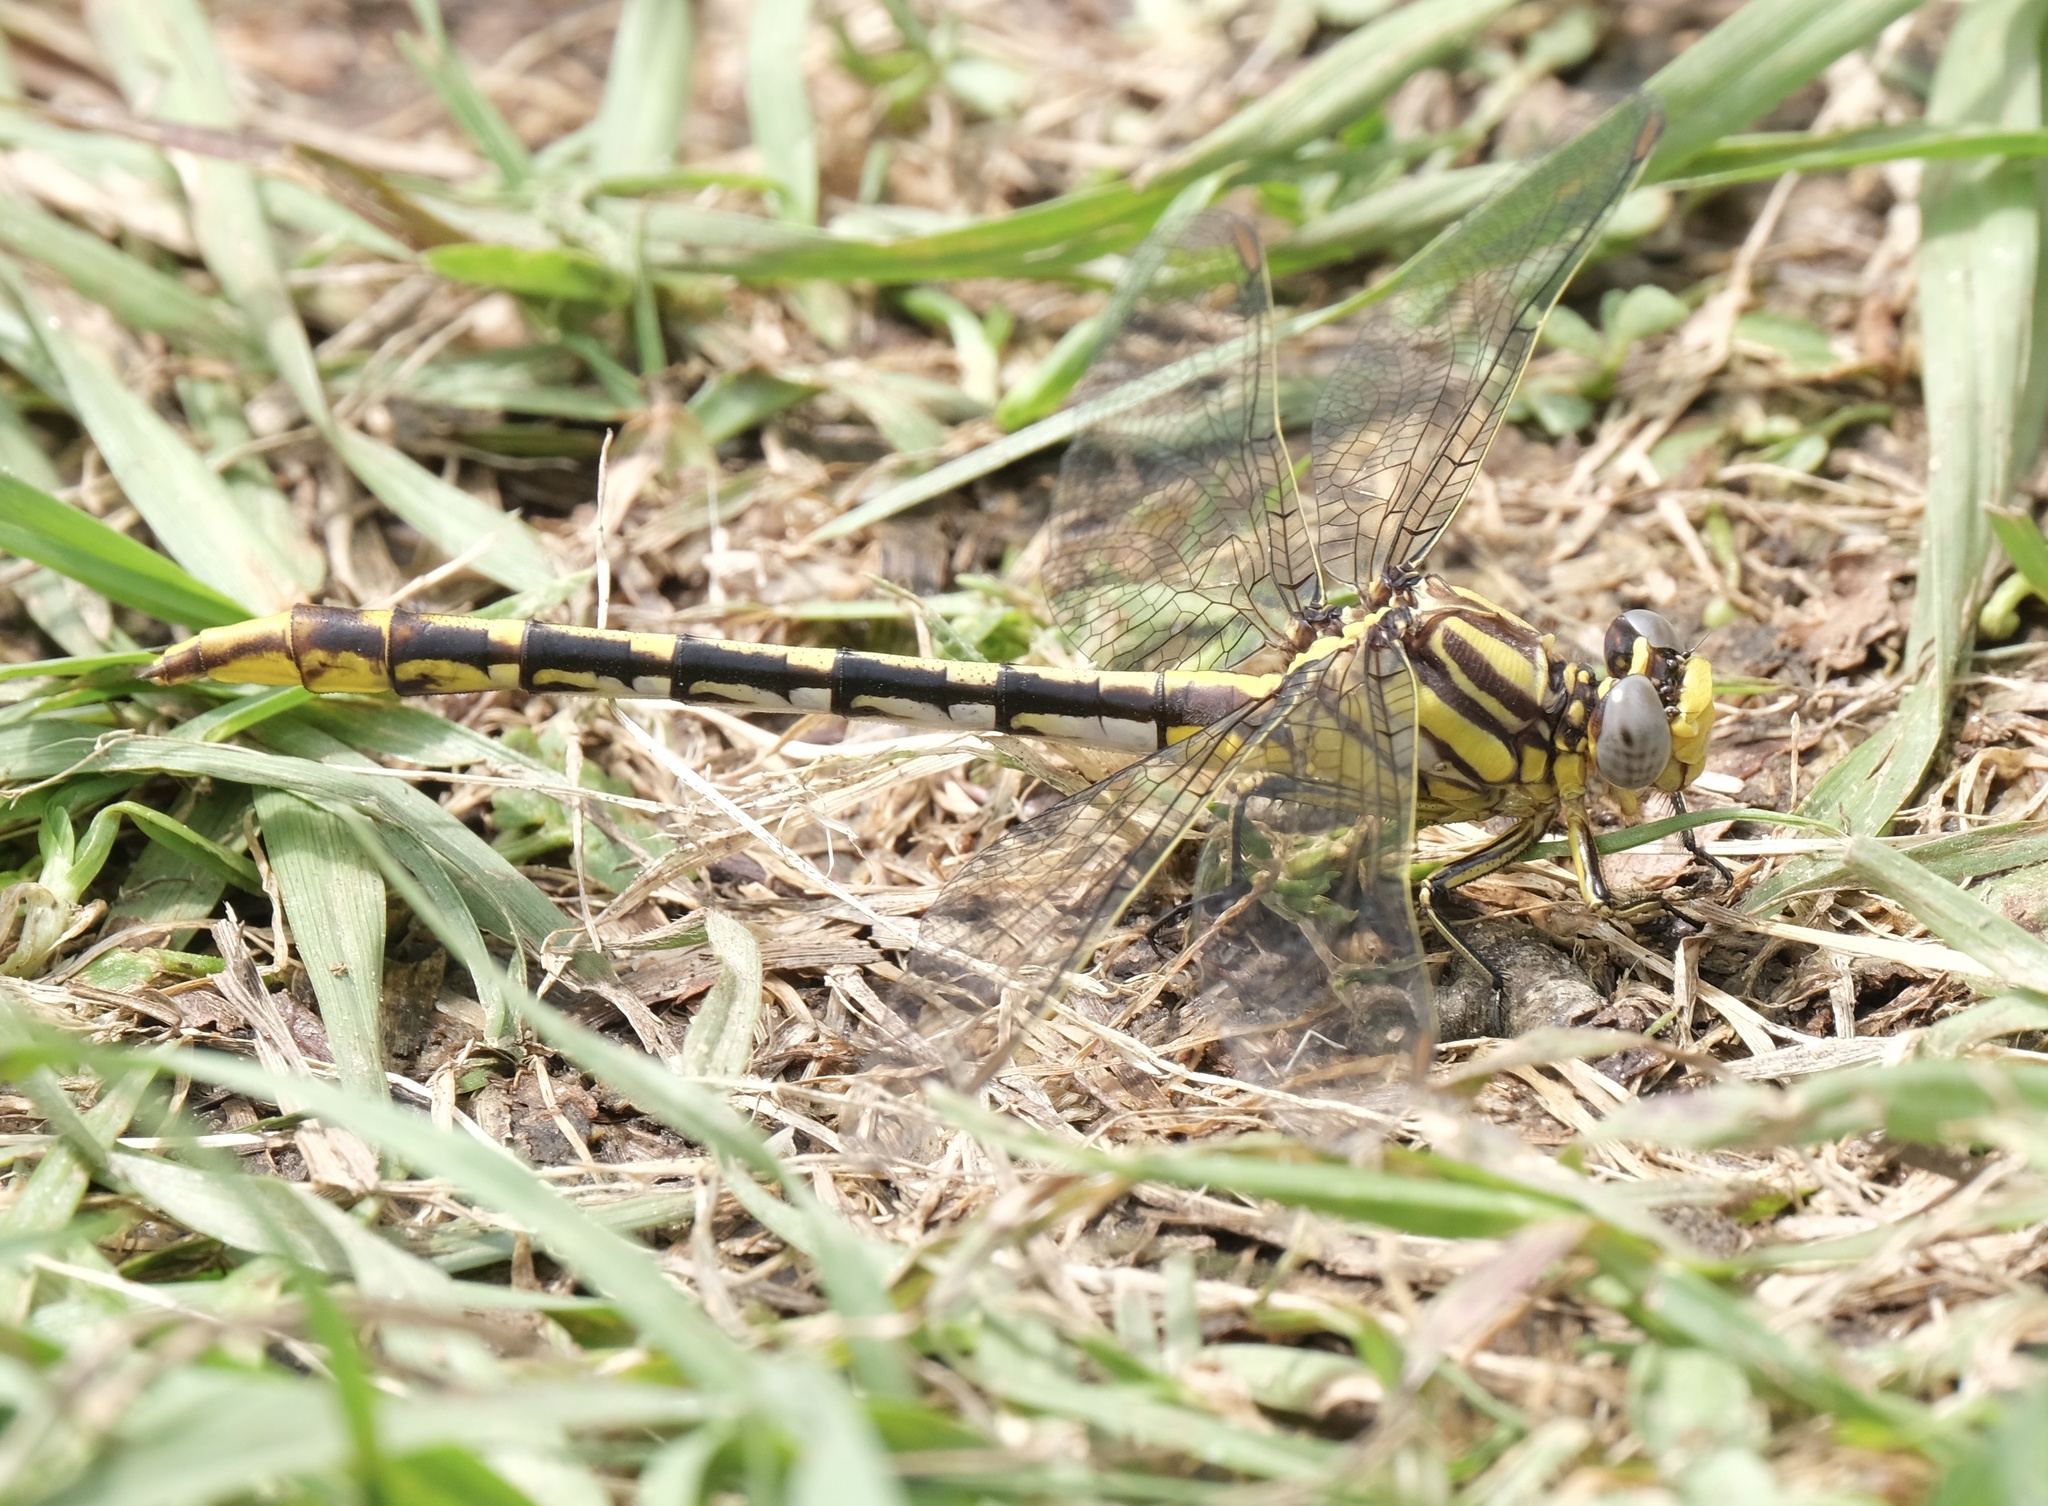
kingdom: Animalia
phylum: Arthropoda
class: Insecta
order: Odonata
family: Gomphidae
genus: Phanogomphus
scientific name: Phanogomphus militaris
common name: Sulphur-tipped clubtail
